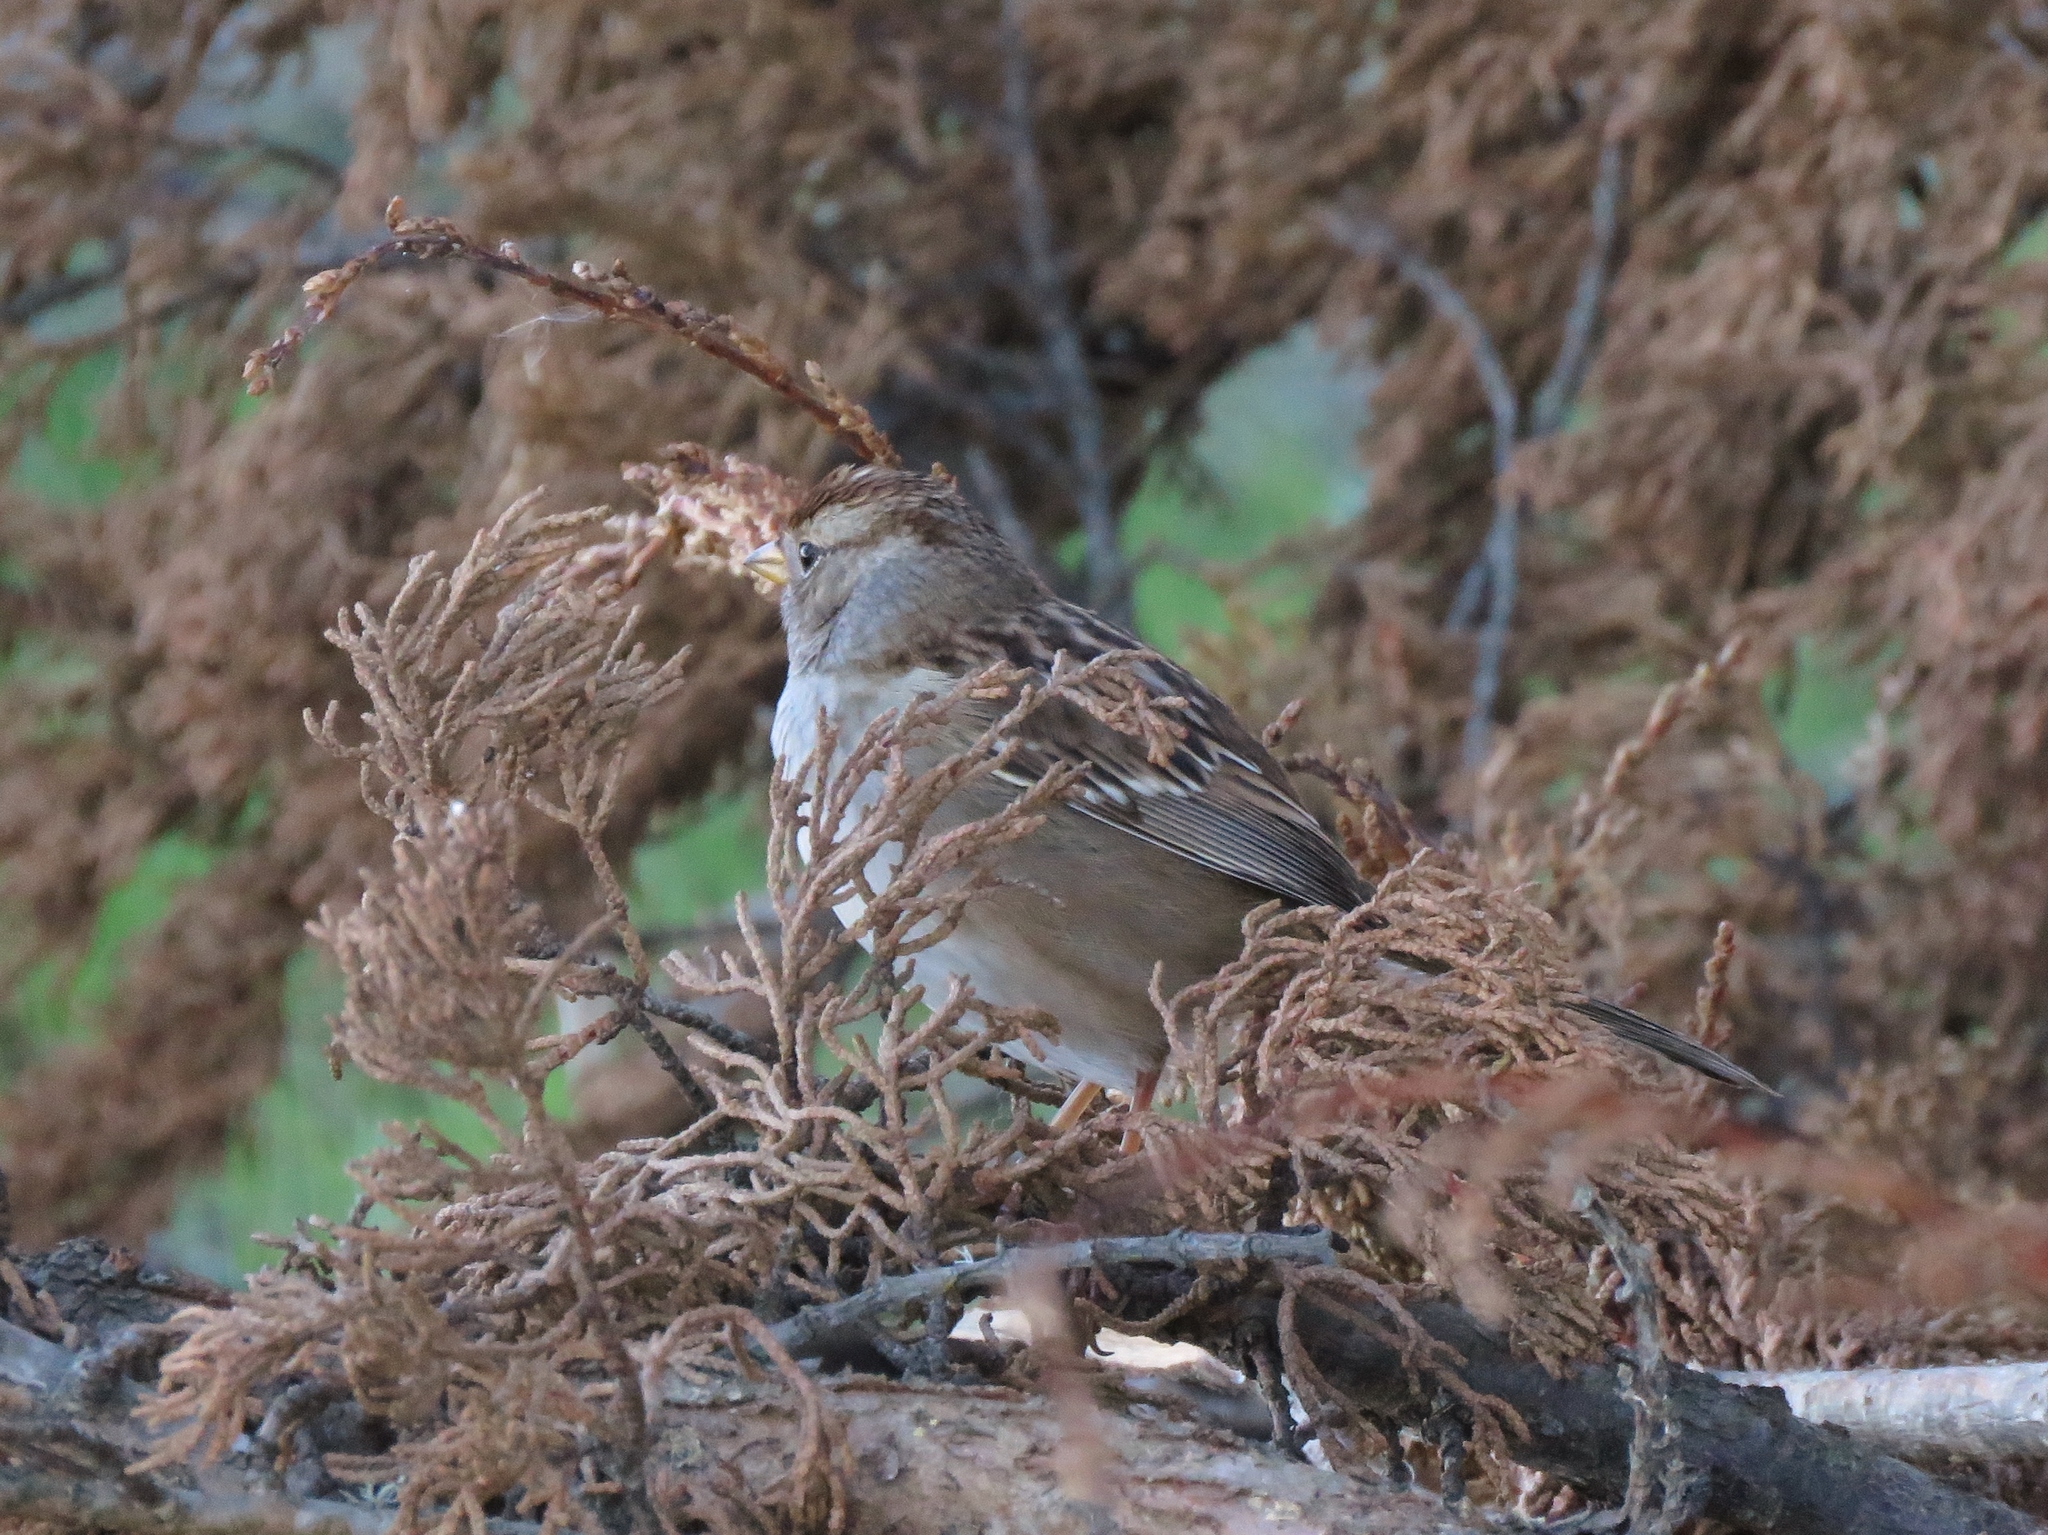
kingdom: Animalia
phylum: Chordata
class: Aves
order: Passeriformes
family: Passerellidae
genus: Zonotrichia
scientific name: Zonotrichia leucophrys
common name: White-crowned sparrow
